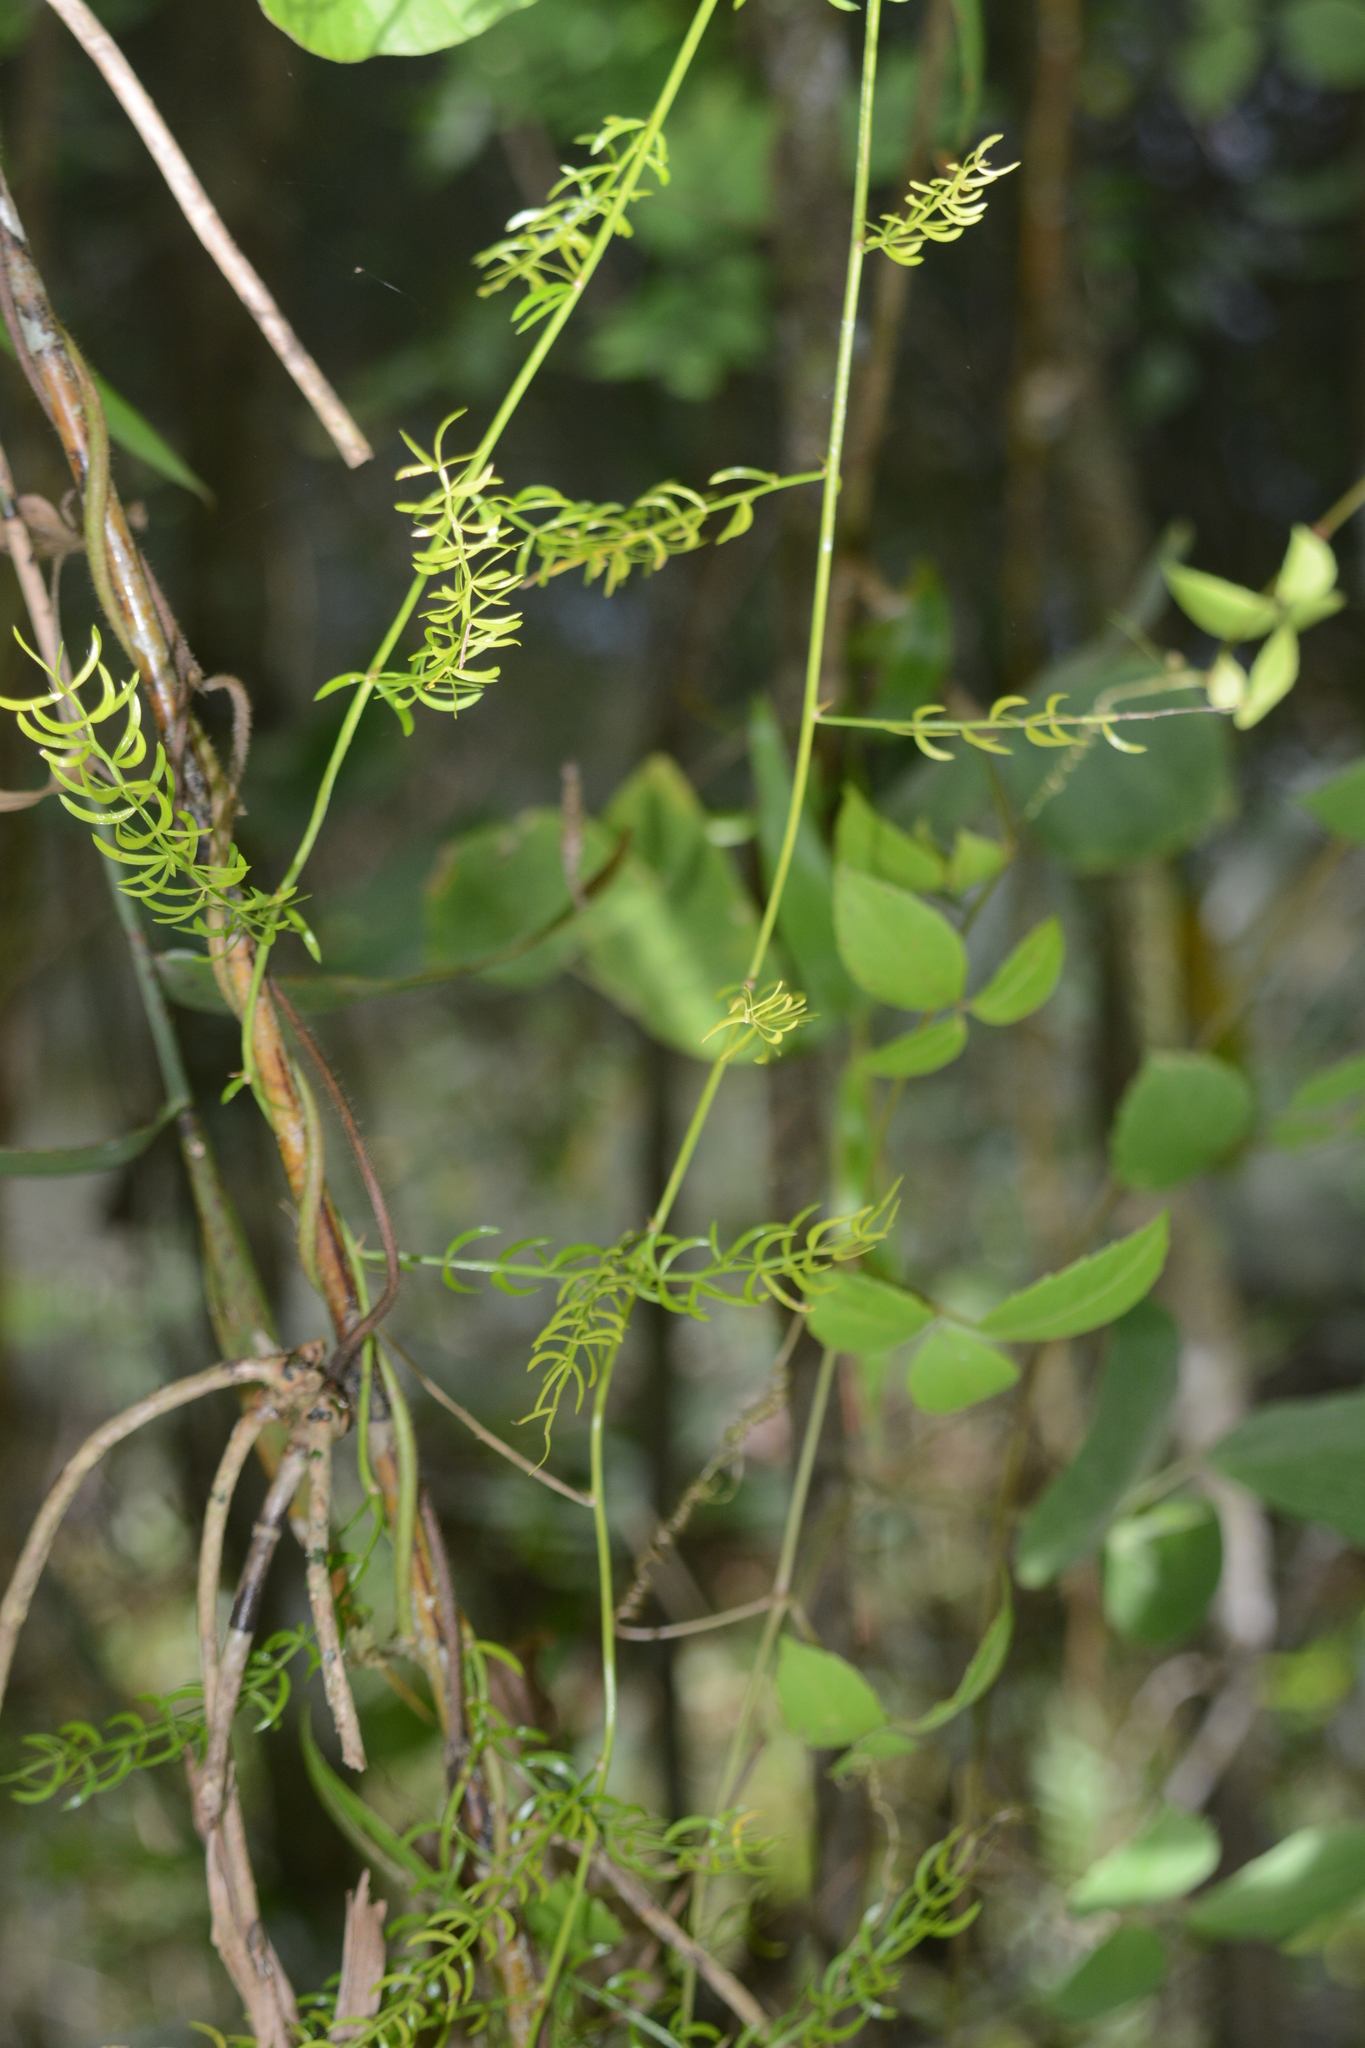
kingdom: Plantae
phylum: Tracheophyta
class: Liliopsida
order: Asparagales
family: Asparagaceae
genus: Asparagus
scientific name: Asparagus racemosus
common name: Asparagus-fern
